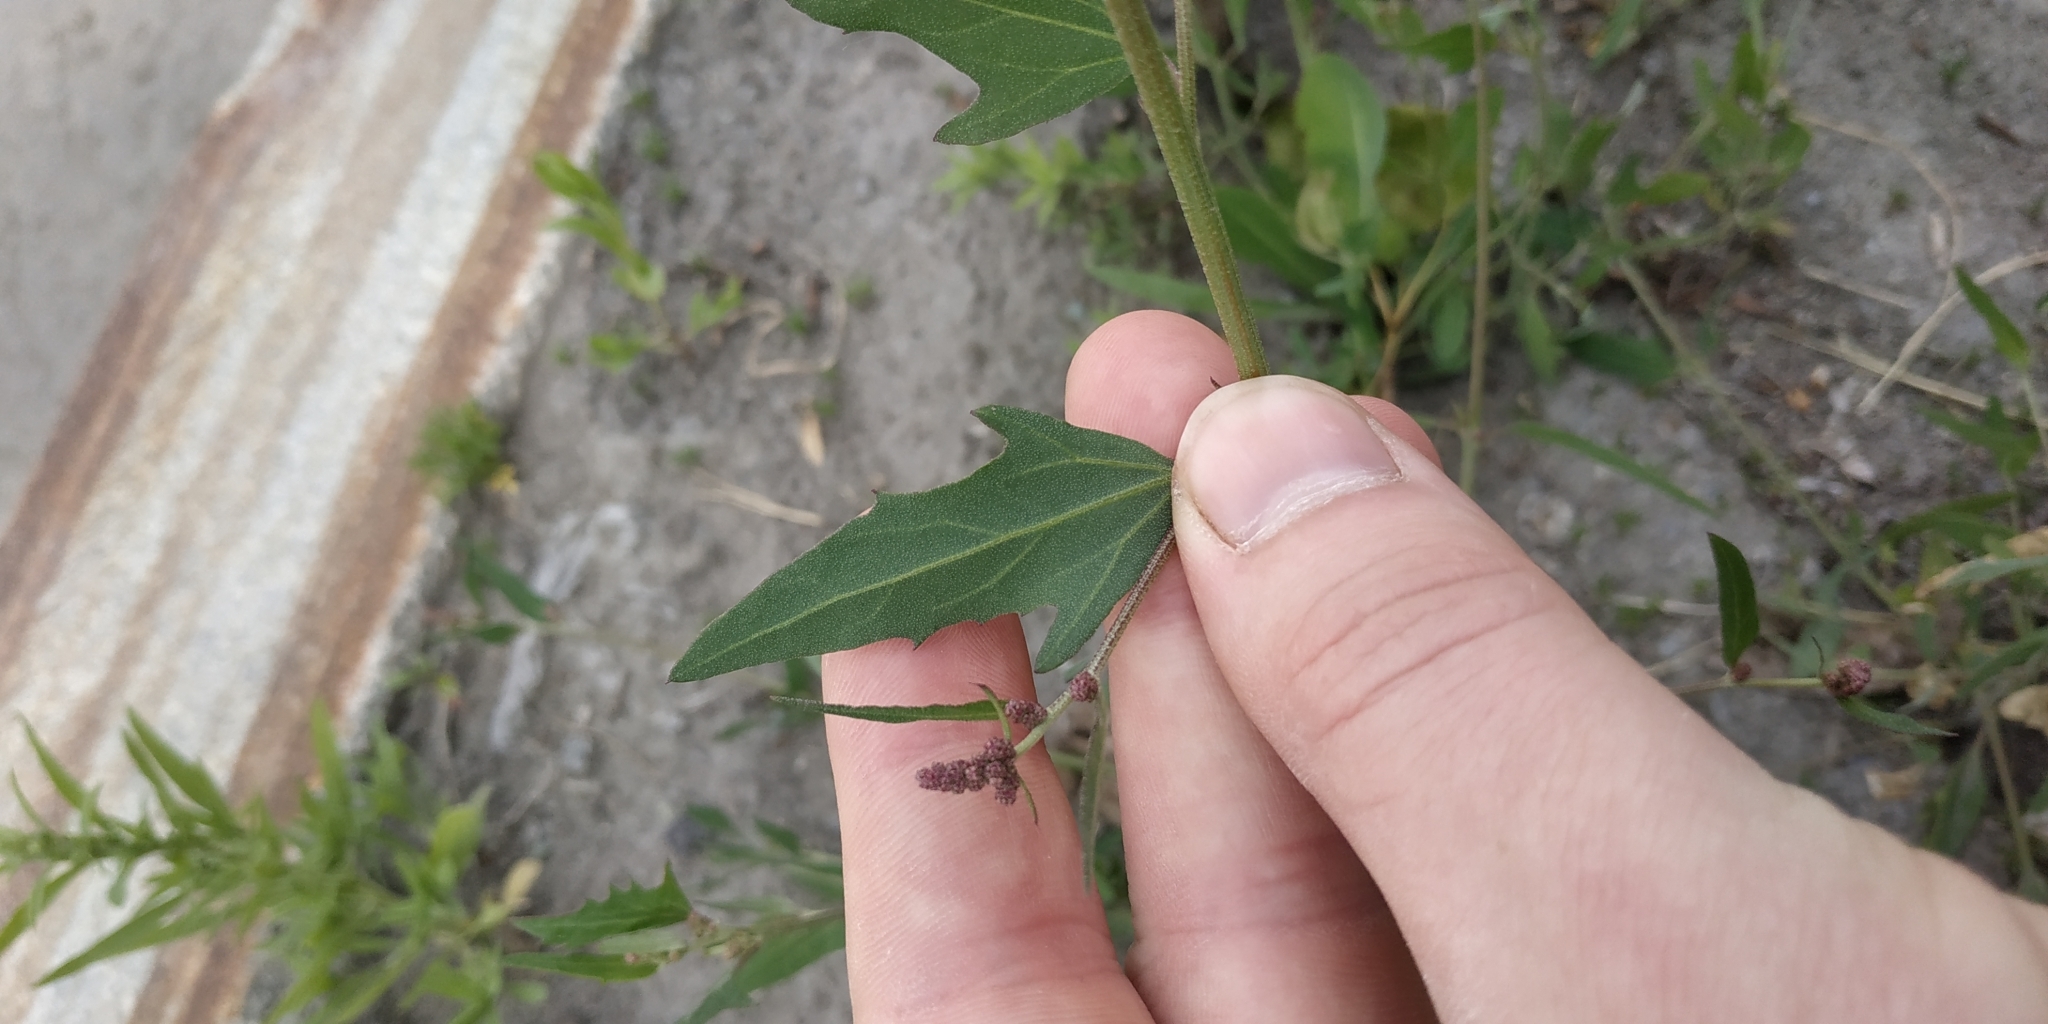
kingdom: Plantae
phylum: Tracheophyta
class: Magnoliopsida
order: Caryophyllales
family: Amaranthaceae
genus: Atriplex
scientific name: Atriplex patula
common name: Common orache
